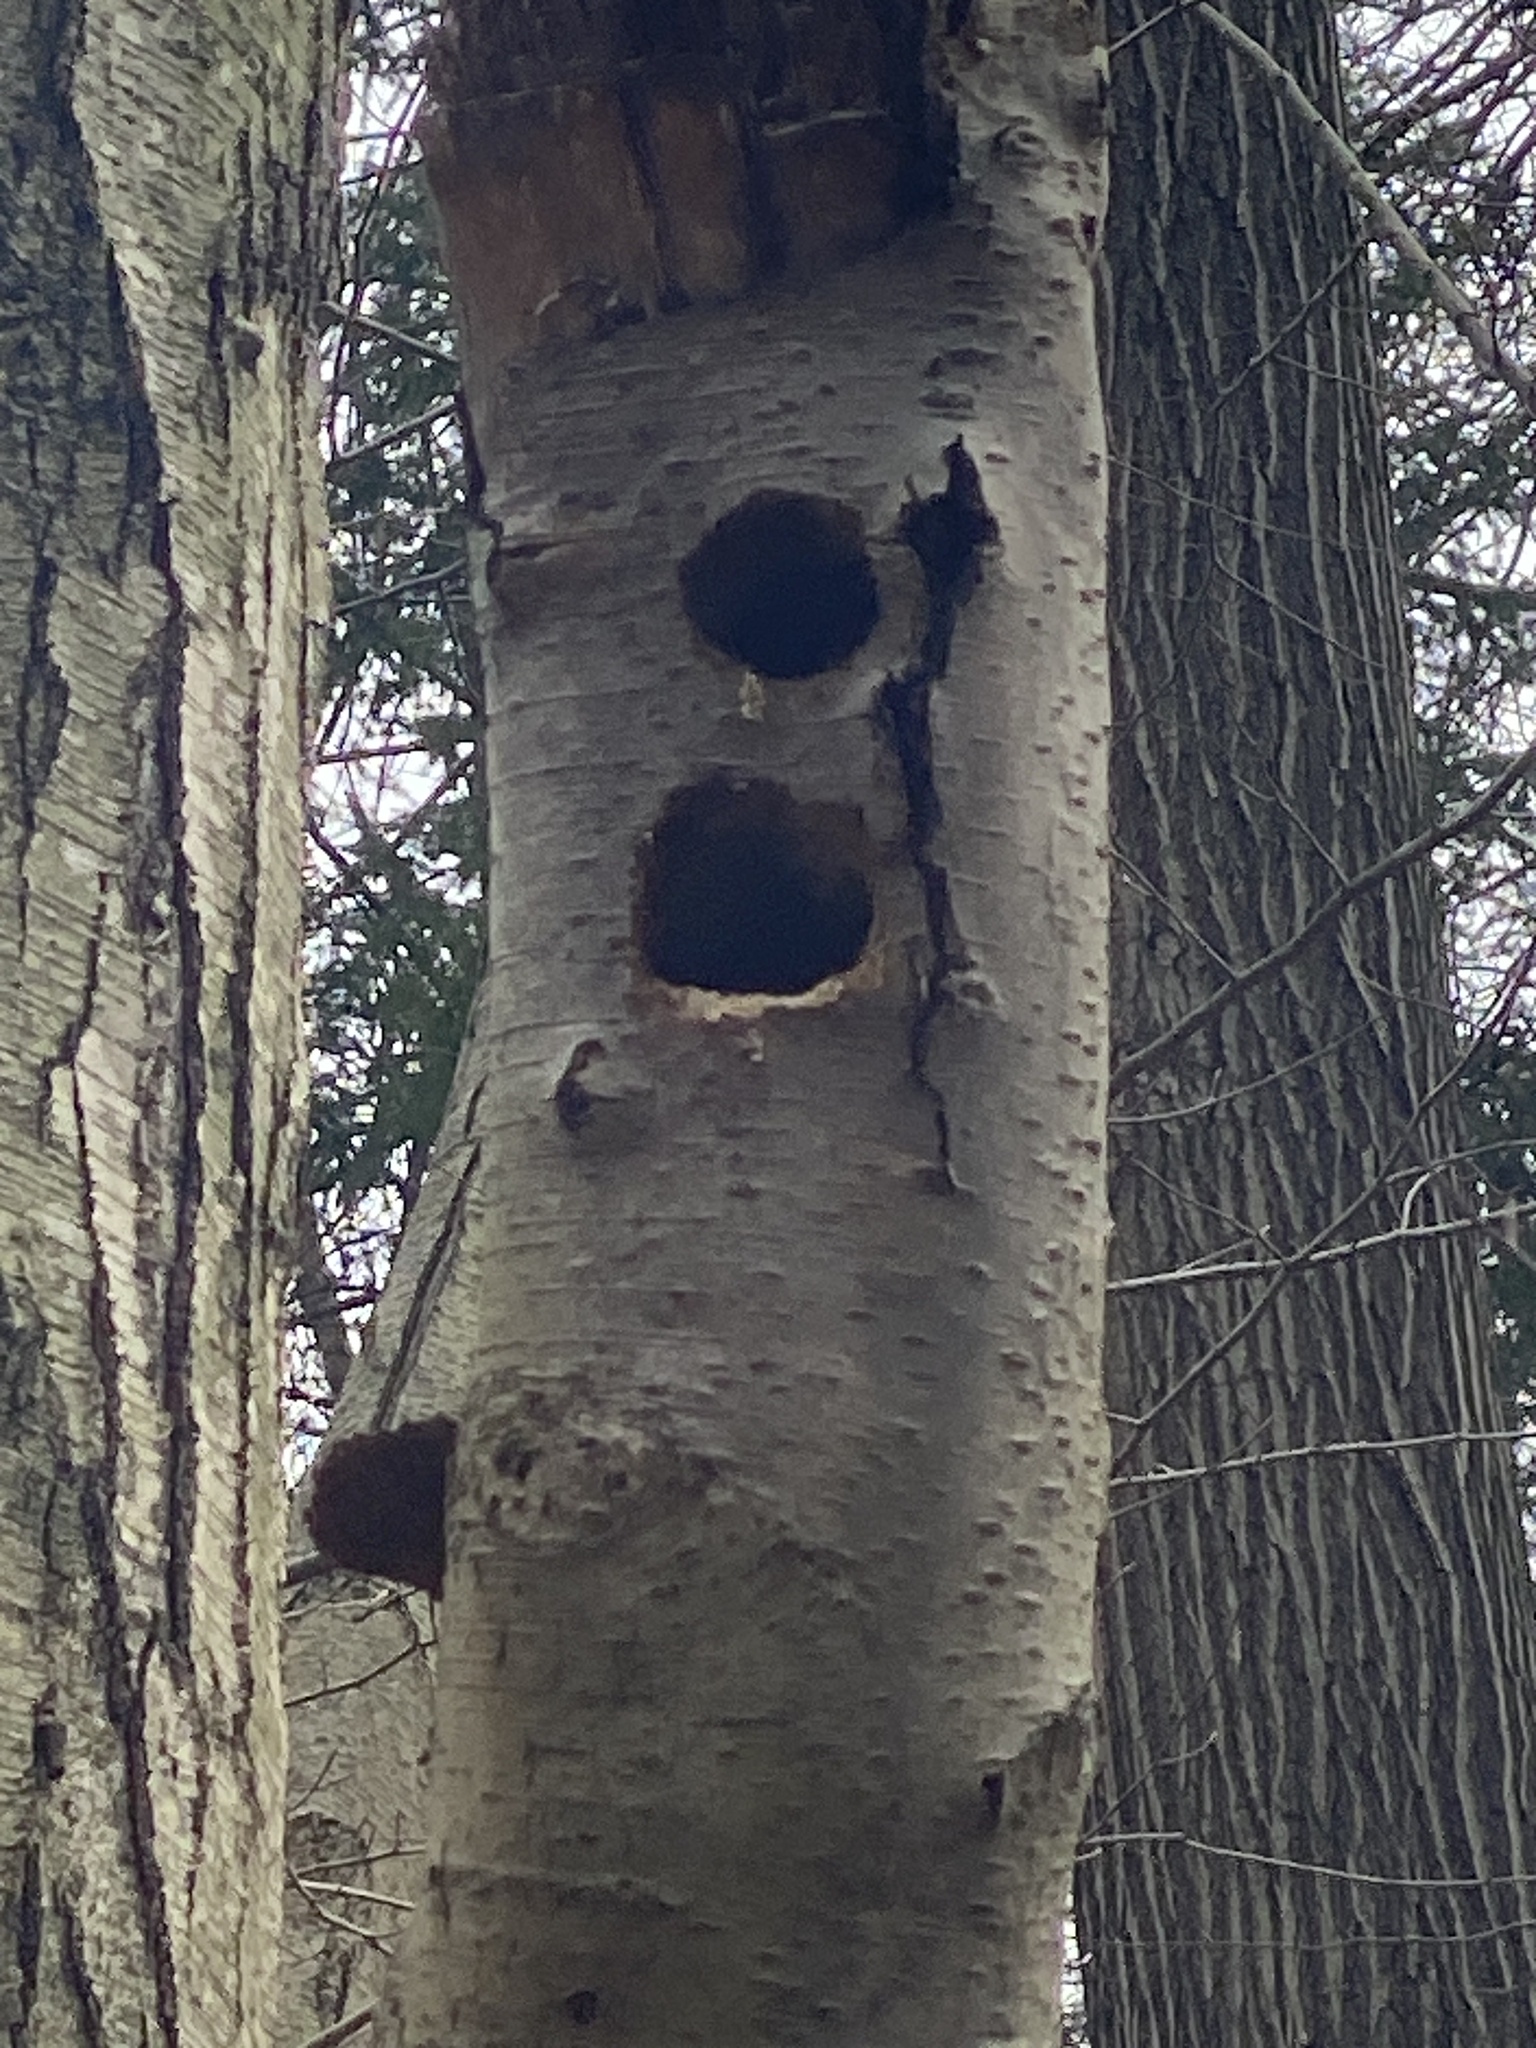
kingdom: Animalia
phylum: Chordata
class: Aves
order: Piciformes
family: Picidae
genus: Dryocopus
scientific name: Dryocopus pileatus
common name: Pileated woodpecker
